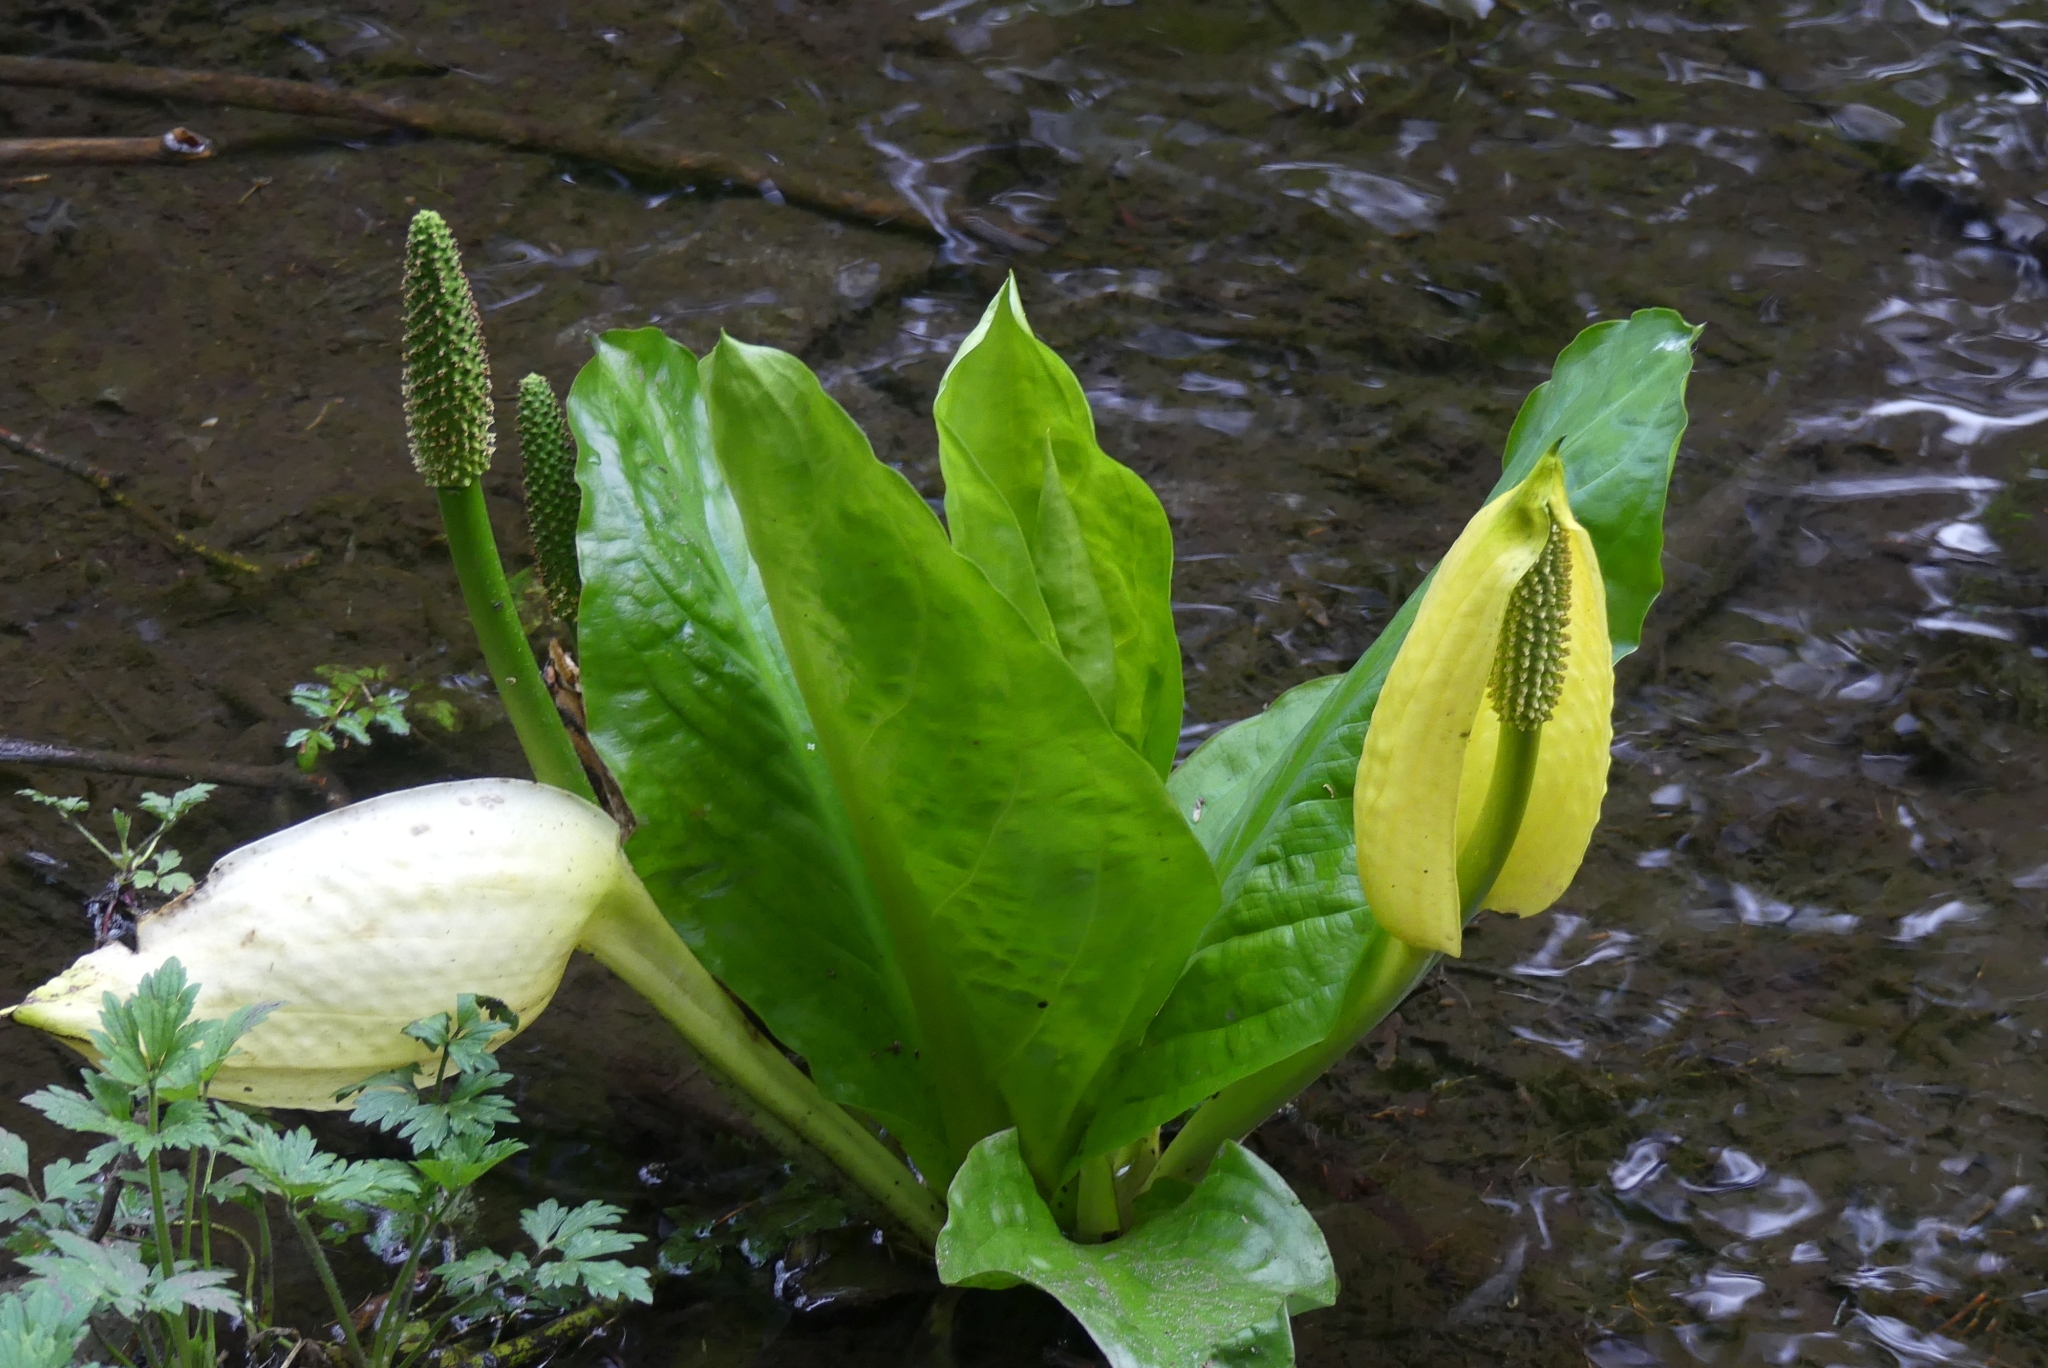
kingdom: Plantae
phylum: Tracheophyta
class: Liliopsida
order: Alismatales
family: Araceae
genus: Lysichiton
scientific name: Lysichiton americanus
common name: American skunk cabbage
